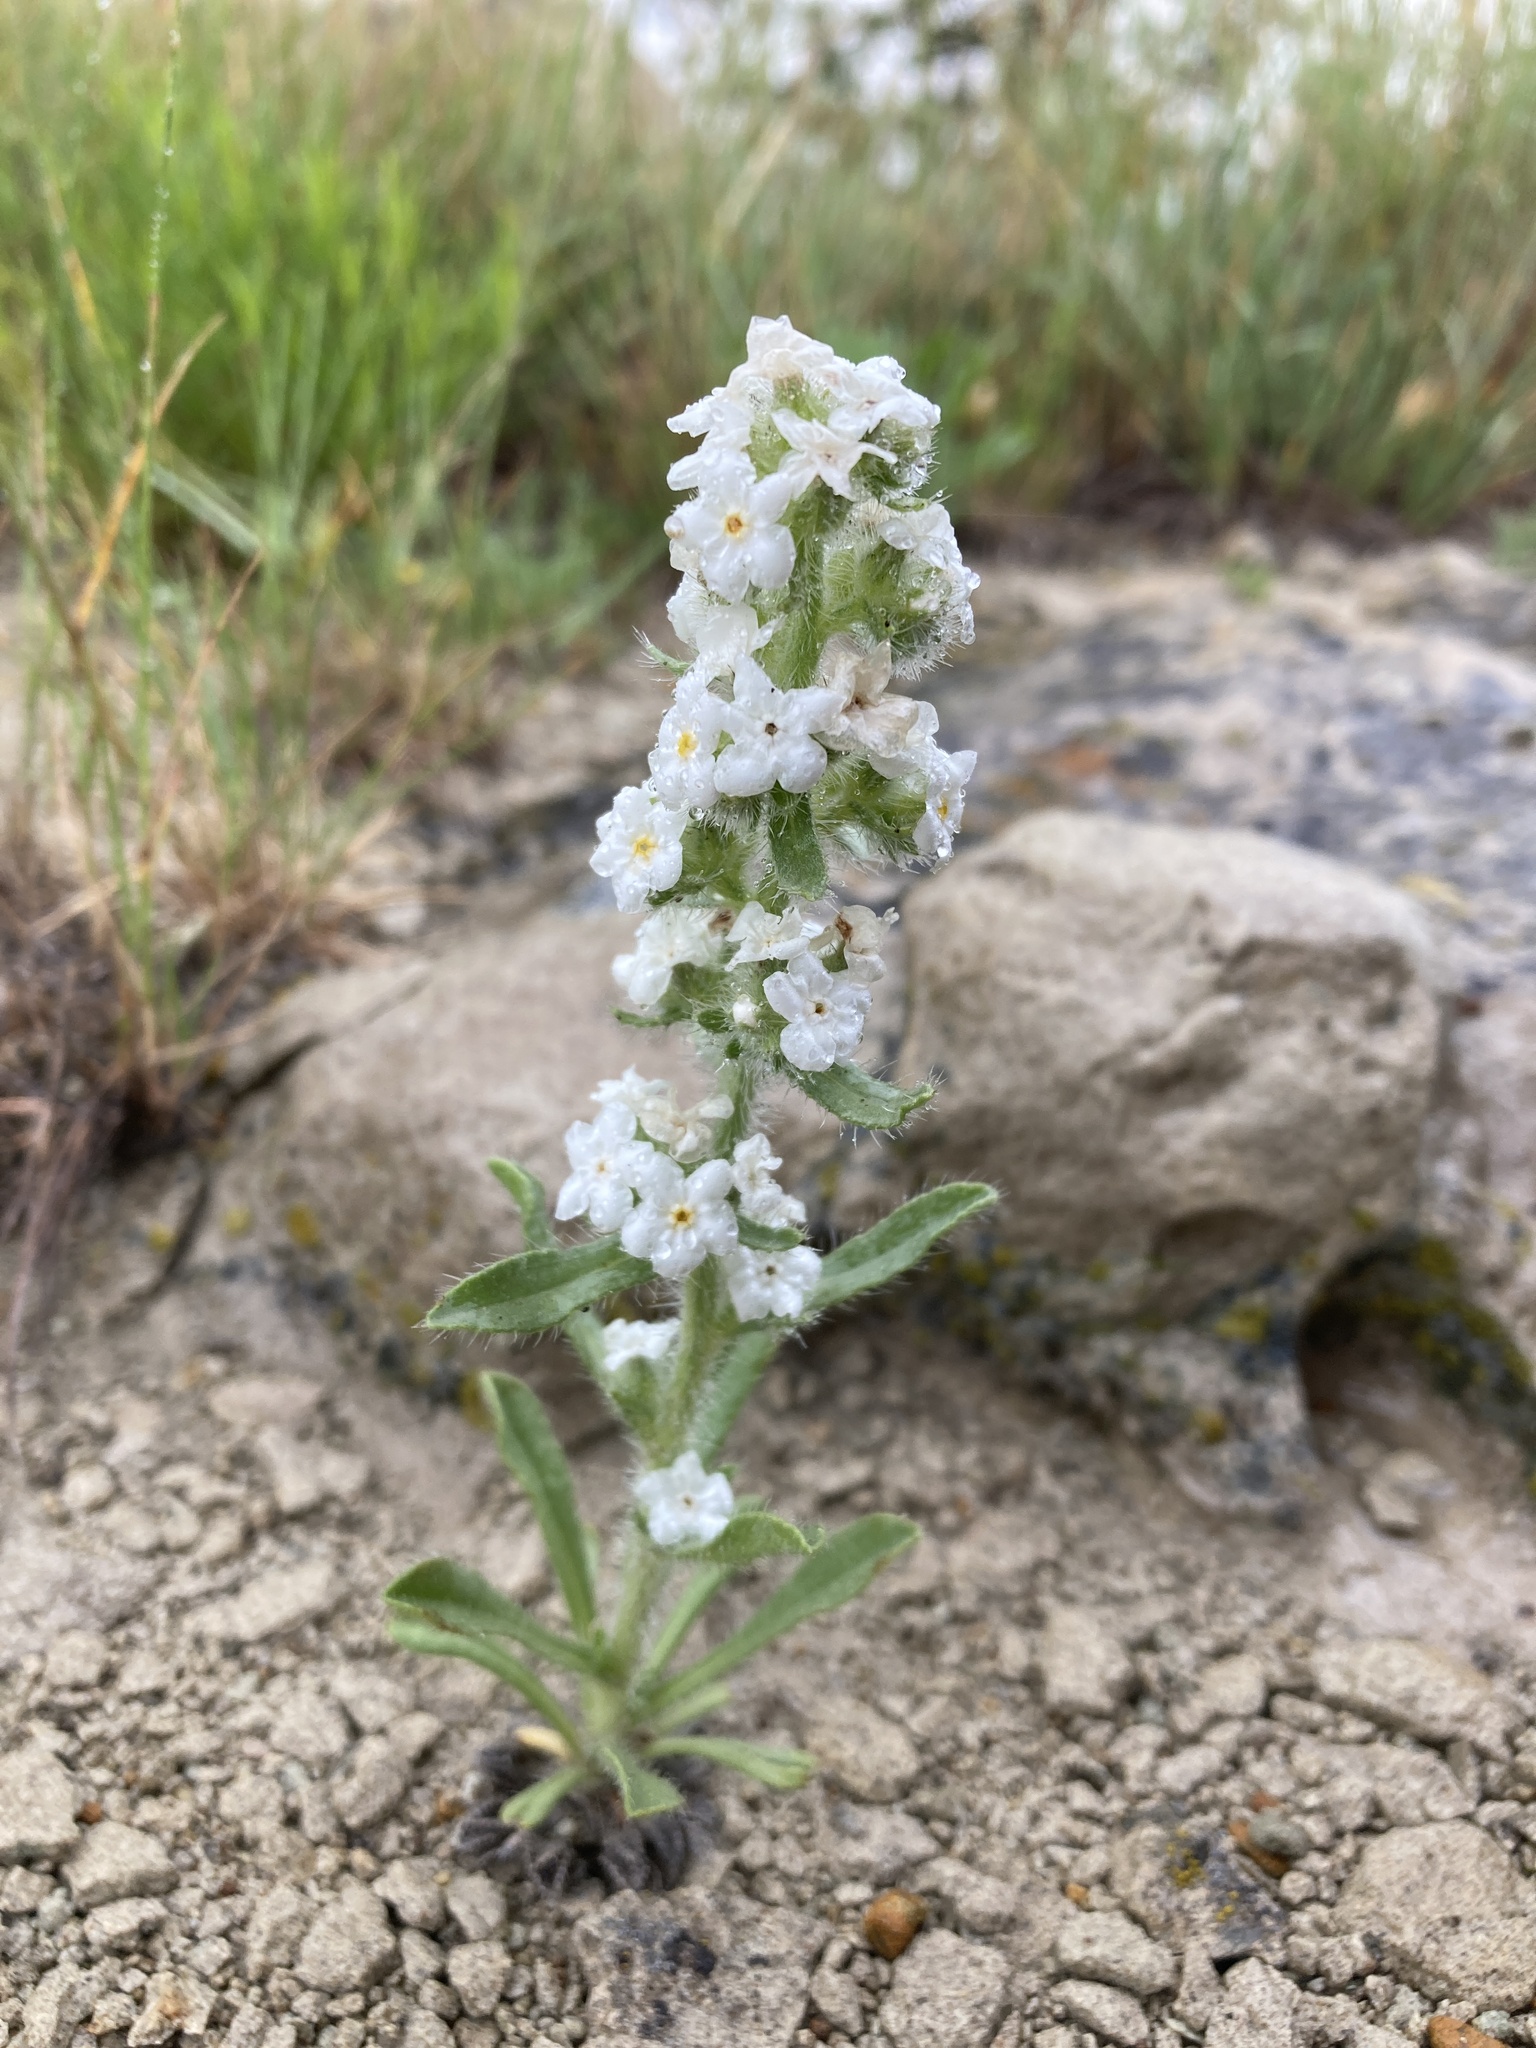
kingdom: Plantae
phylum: Tracheophyta
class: Magnoliopsida
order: Boraginales
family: Boraginaceae
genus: Oreocarya
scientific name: Oreocarya glomerata
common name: Macoun's cryptantha
